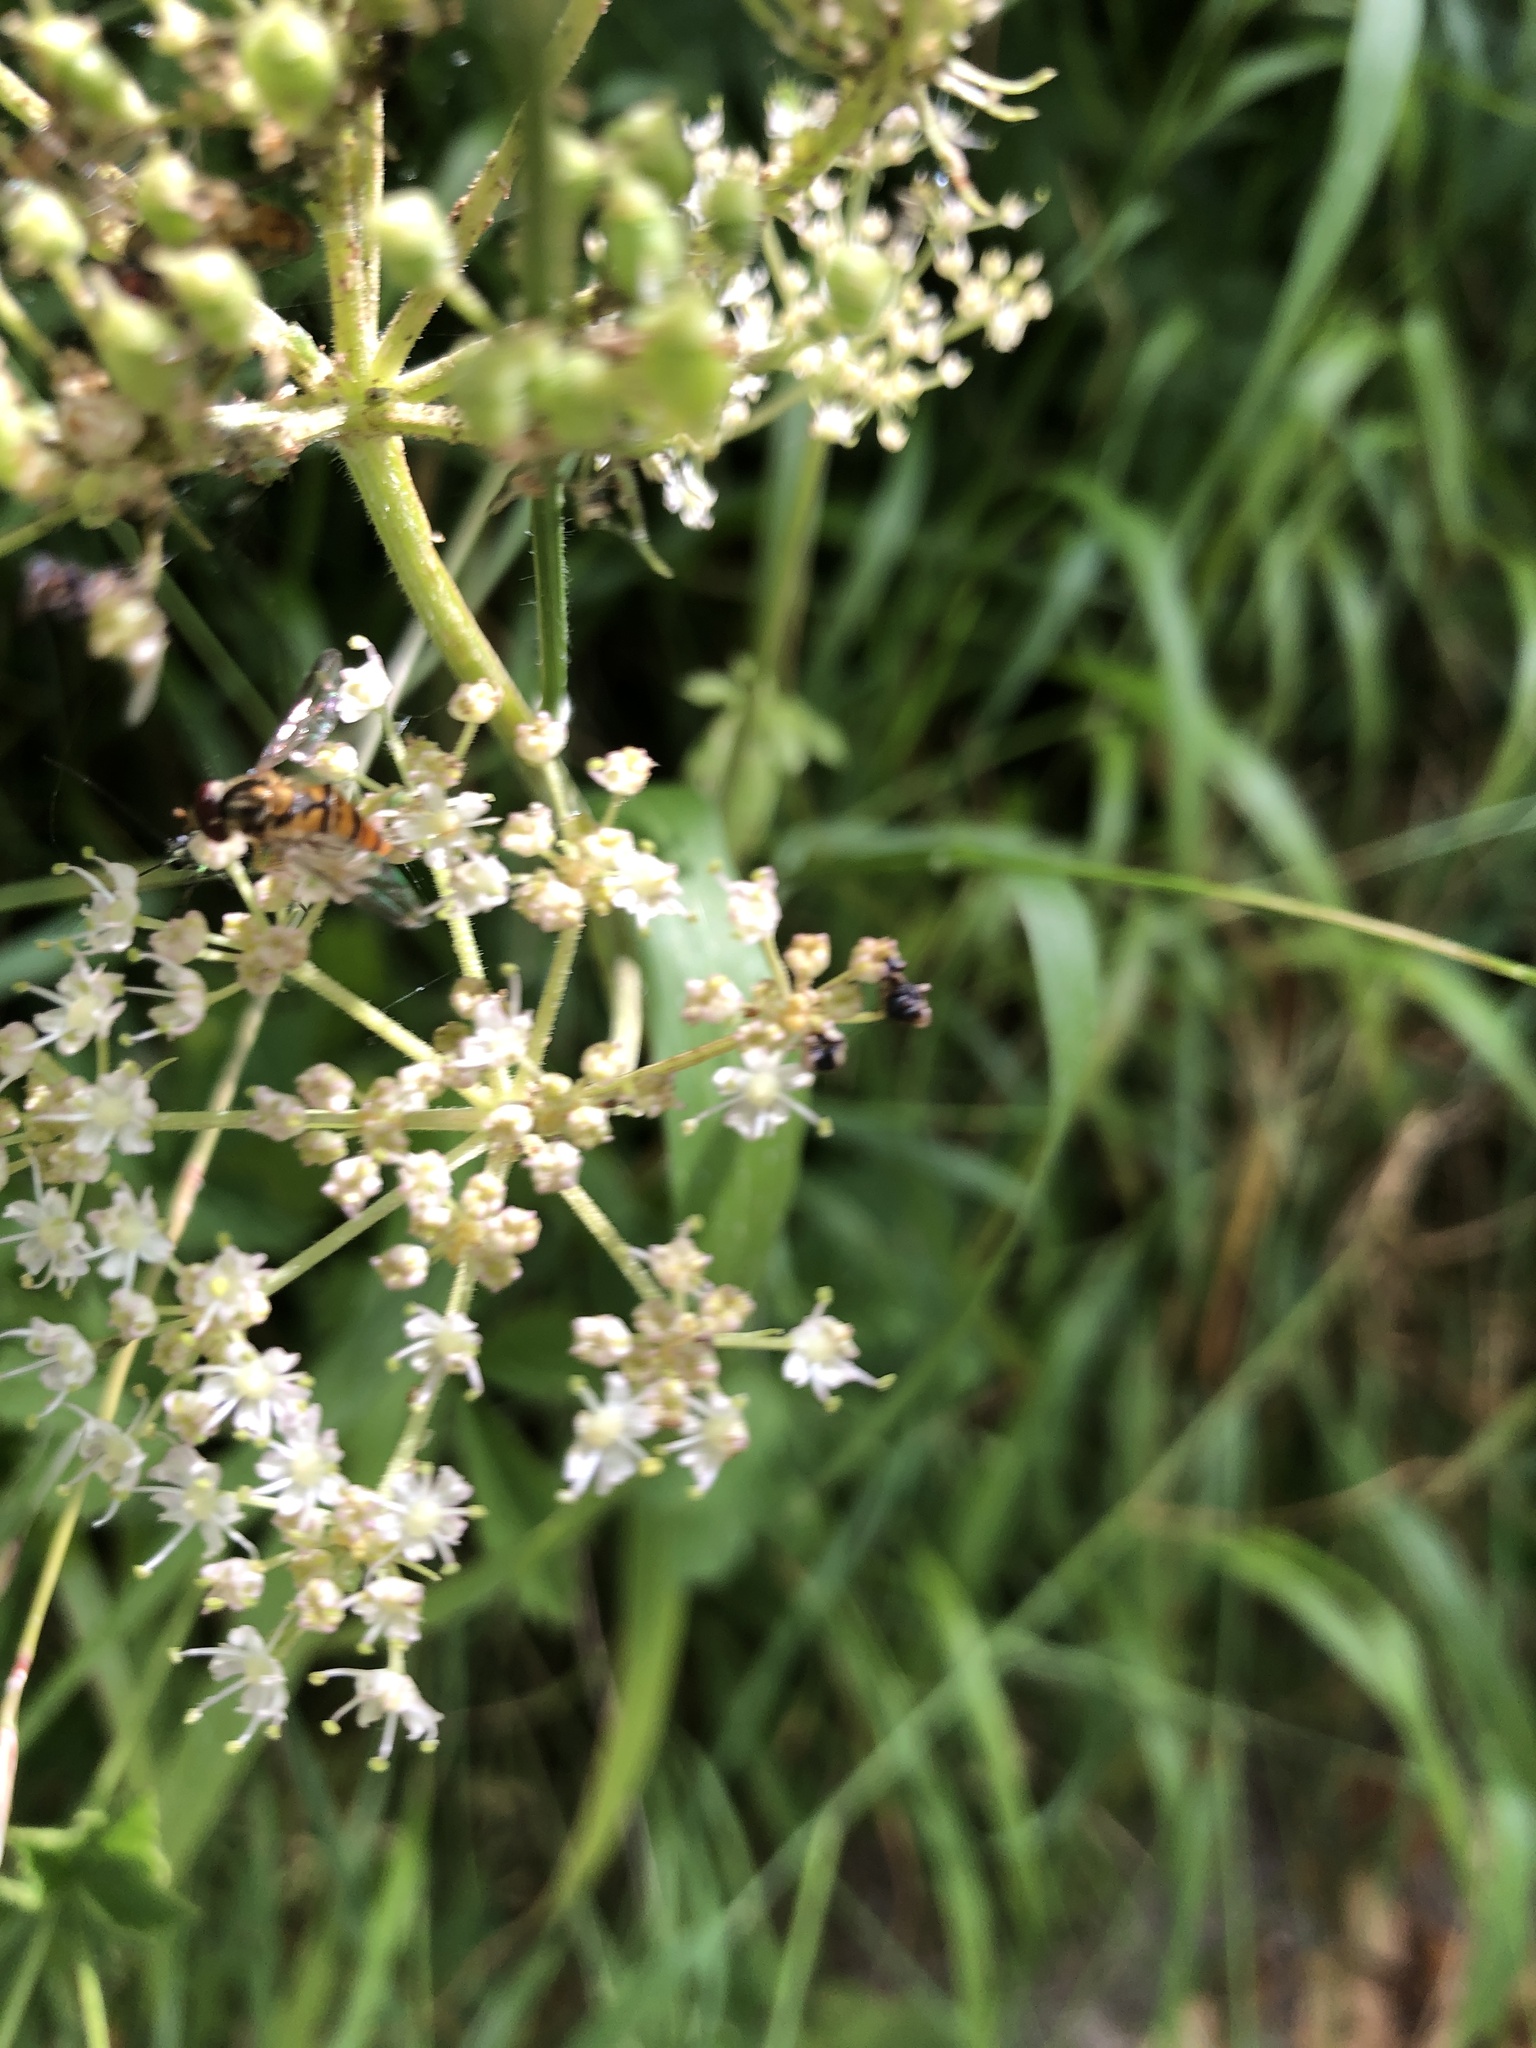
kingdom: Animalia
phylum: Arthropoda
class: Insecta
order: Diptera
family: Syrphidae
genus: Episyrphus
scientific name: Episyrphus balteatus
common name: Marmalade hoverfly
